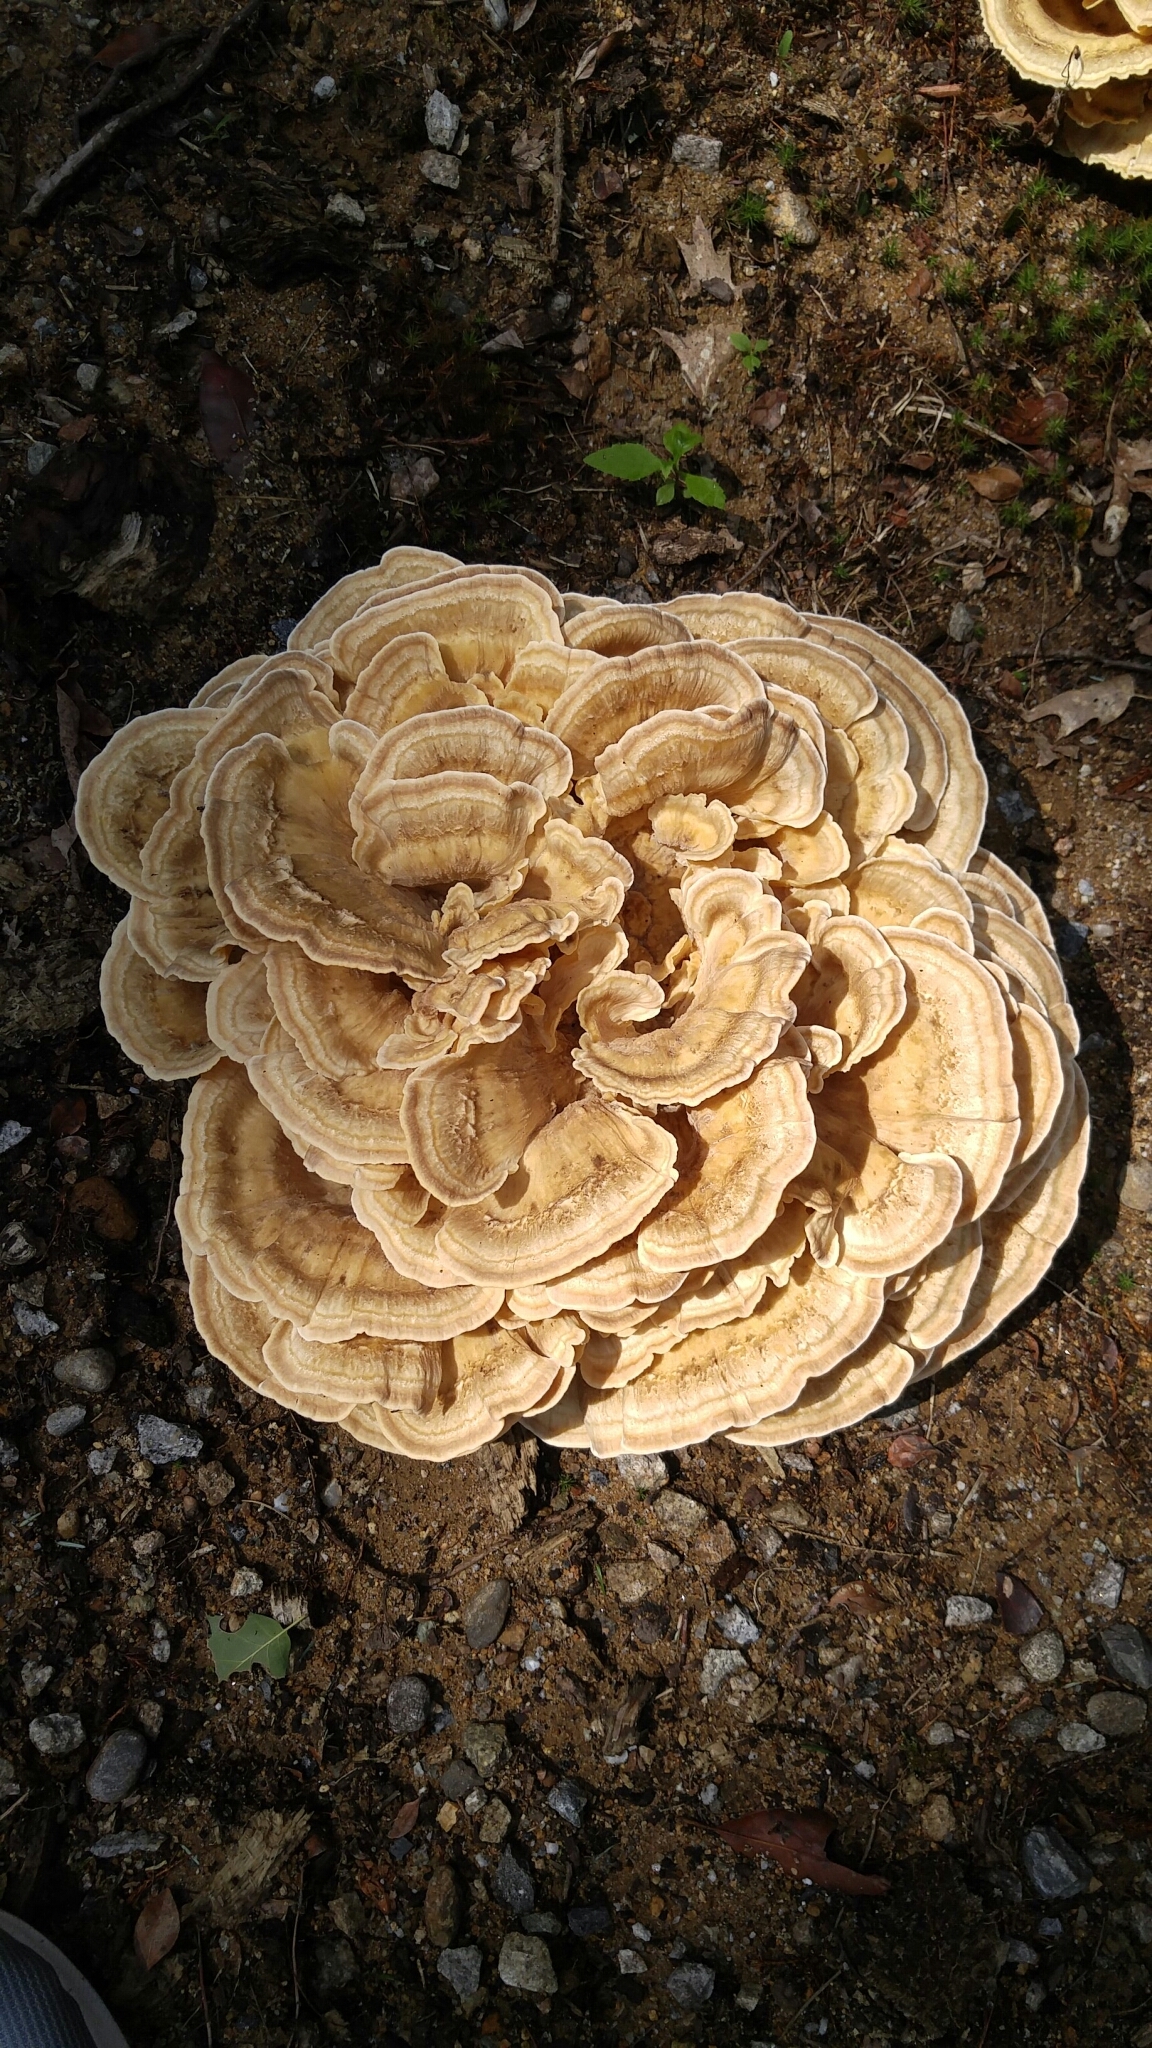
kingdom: Fungi
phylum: Basidiomycota
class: Agaricomycetes
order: Polyporales
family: Meripilaceae
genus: Meripilus
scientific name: Meripilus sumstinei
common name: Black-staining polypore
